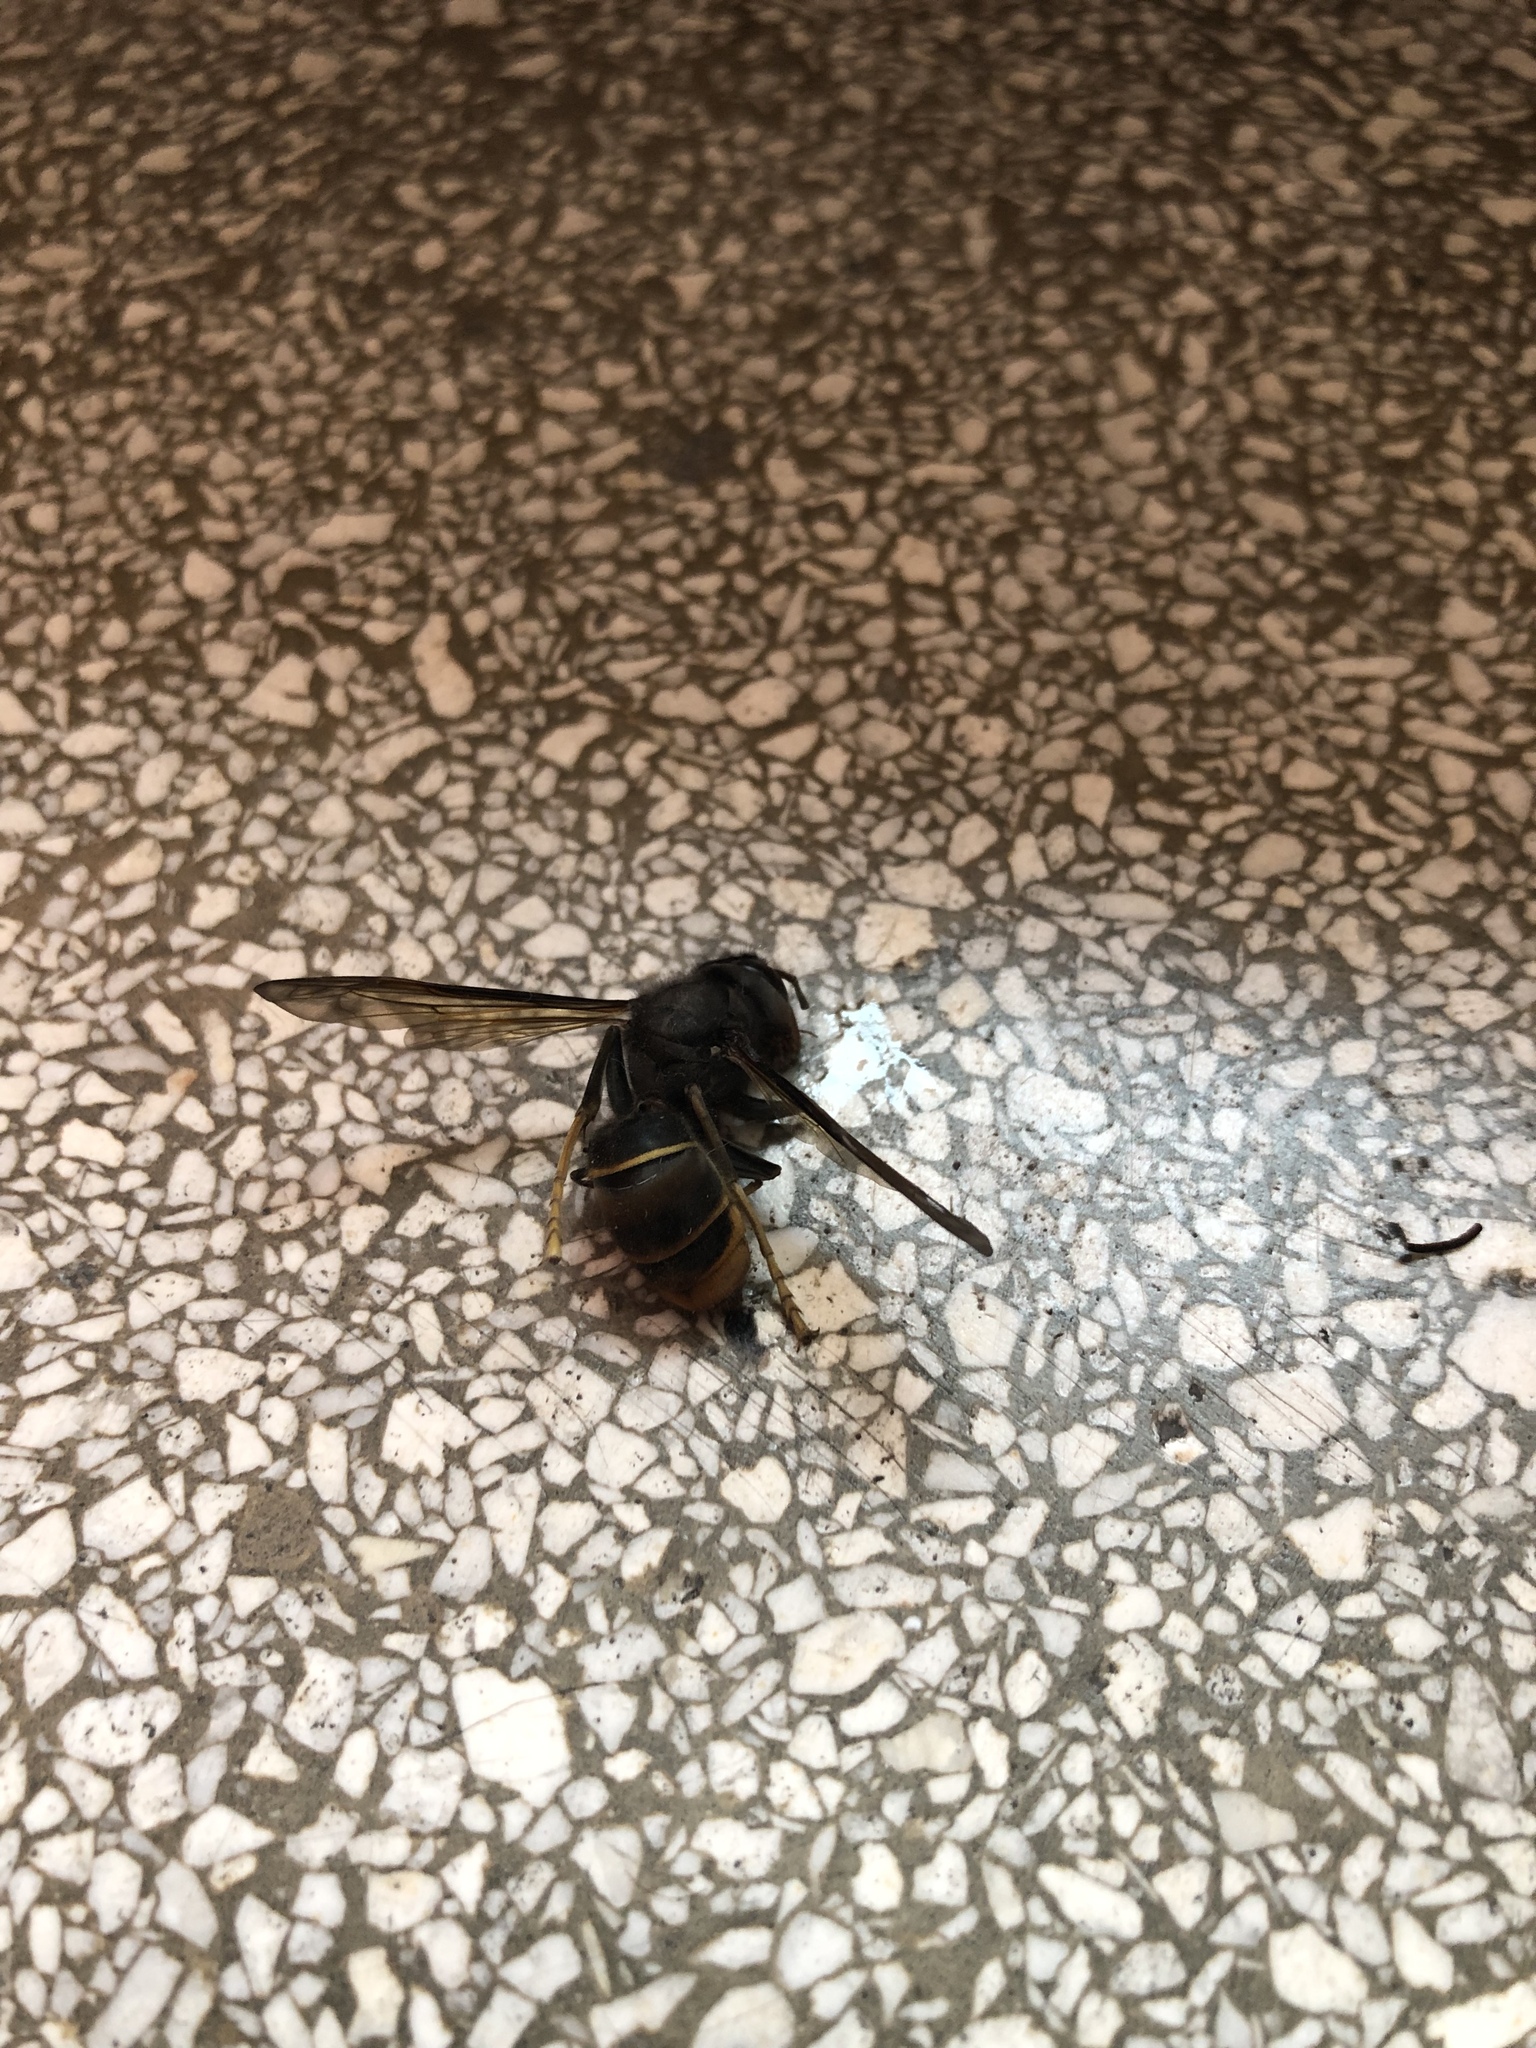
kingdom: Animalia
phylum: Arthropoda
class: Insecta
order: Hymenoptera
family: Vespidae
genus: Vespa
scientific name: Vespa velutina
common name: Asian hornet
